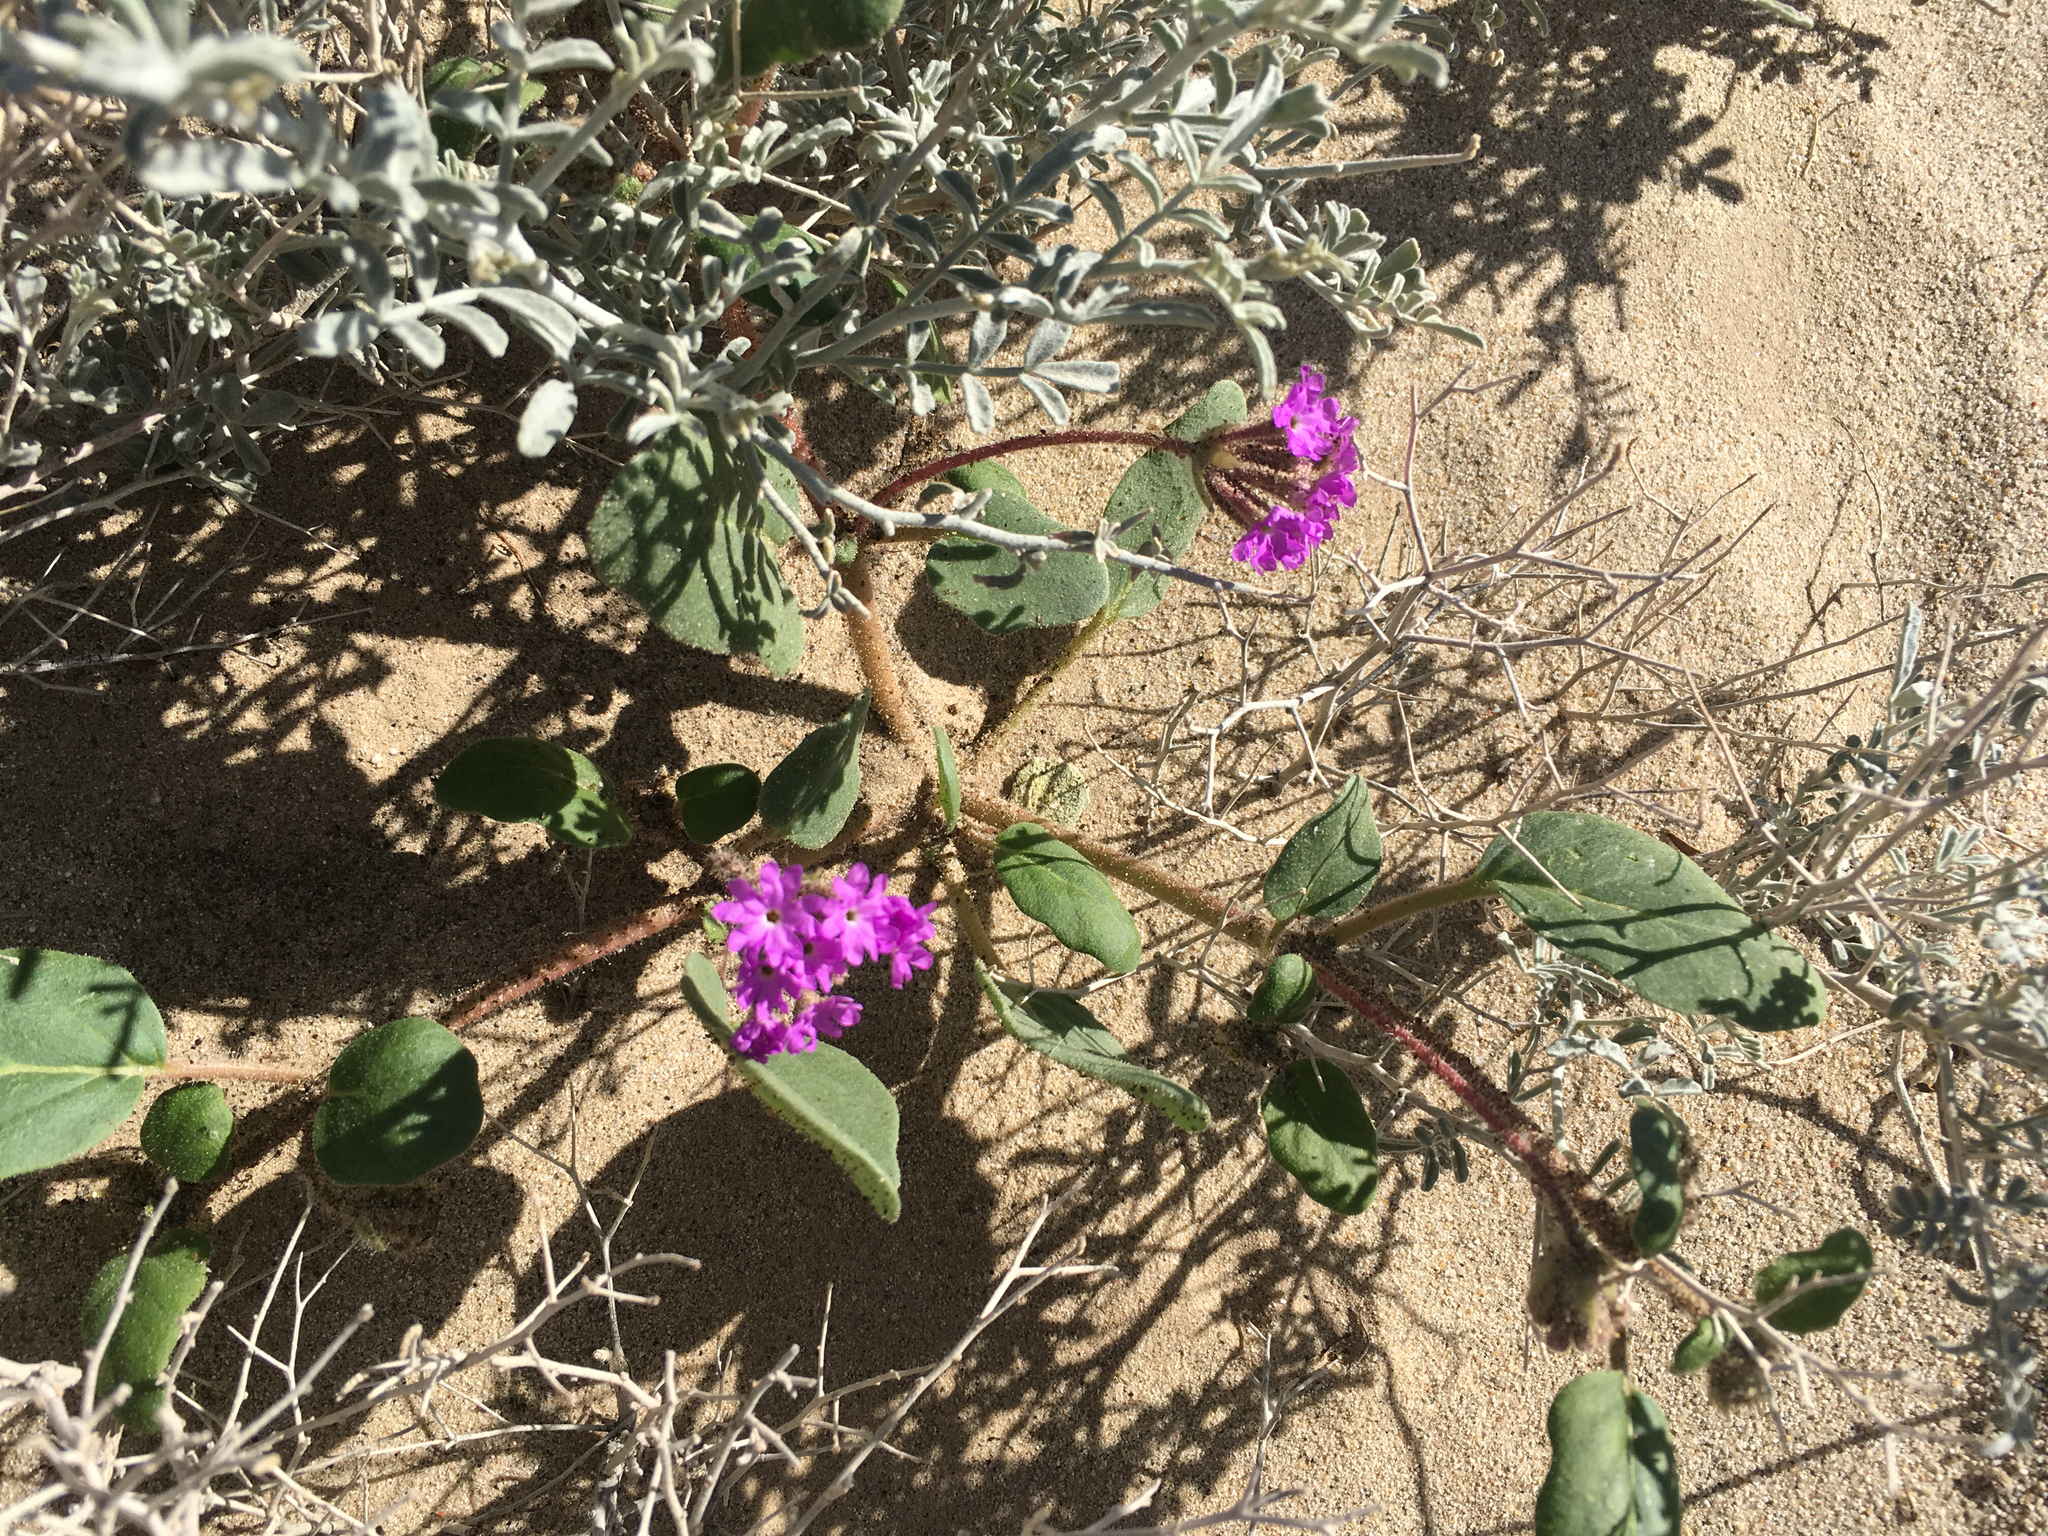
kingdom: Plantae
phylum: Tracheophyta
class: Magnoliopsida
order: Caryophyllales
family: Nyctaginaceae
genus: Abronia
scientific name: Abronia villosa
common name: Desert sand-verbena
